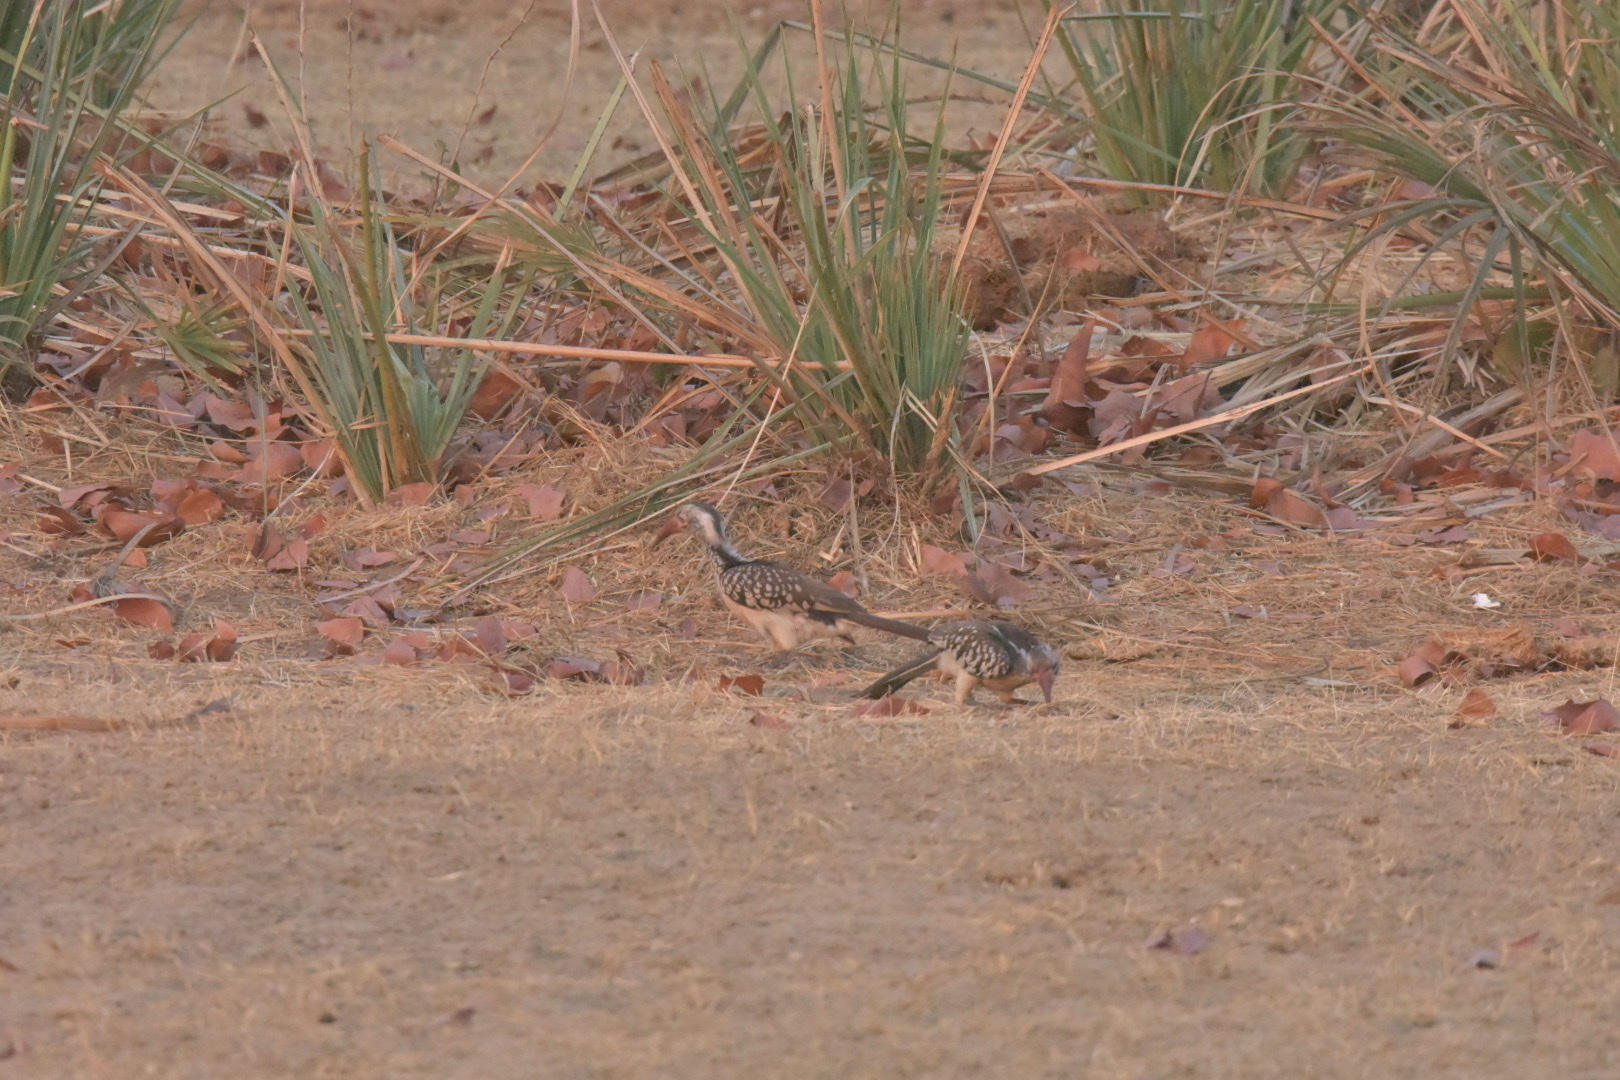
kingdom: Animalia
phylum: Chordata
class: Aves
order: Bucerotiformes
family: Bucerotidae
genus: Tockus
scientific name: Tockus rufirostris
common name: Southern red-billed hornbill
